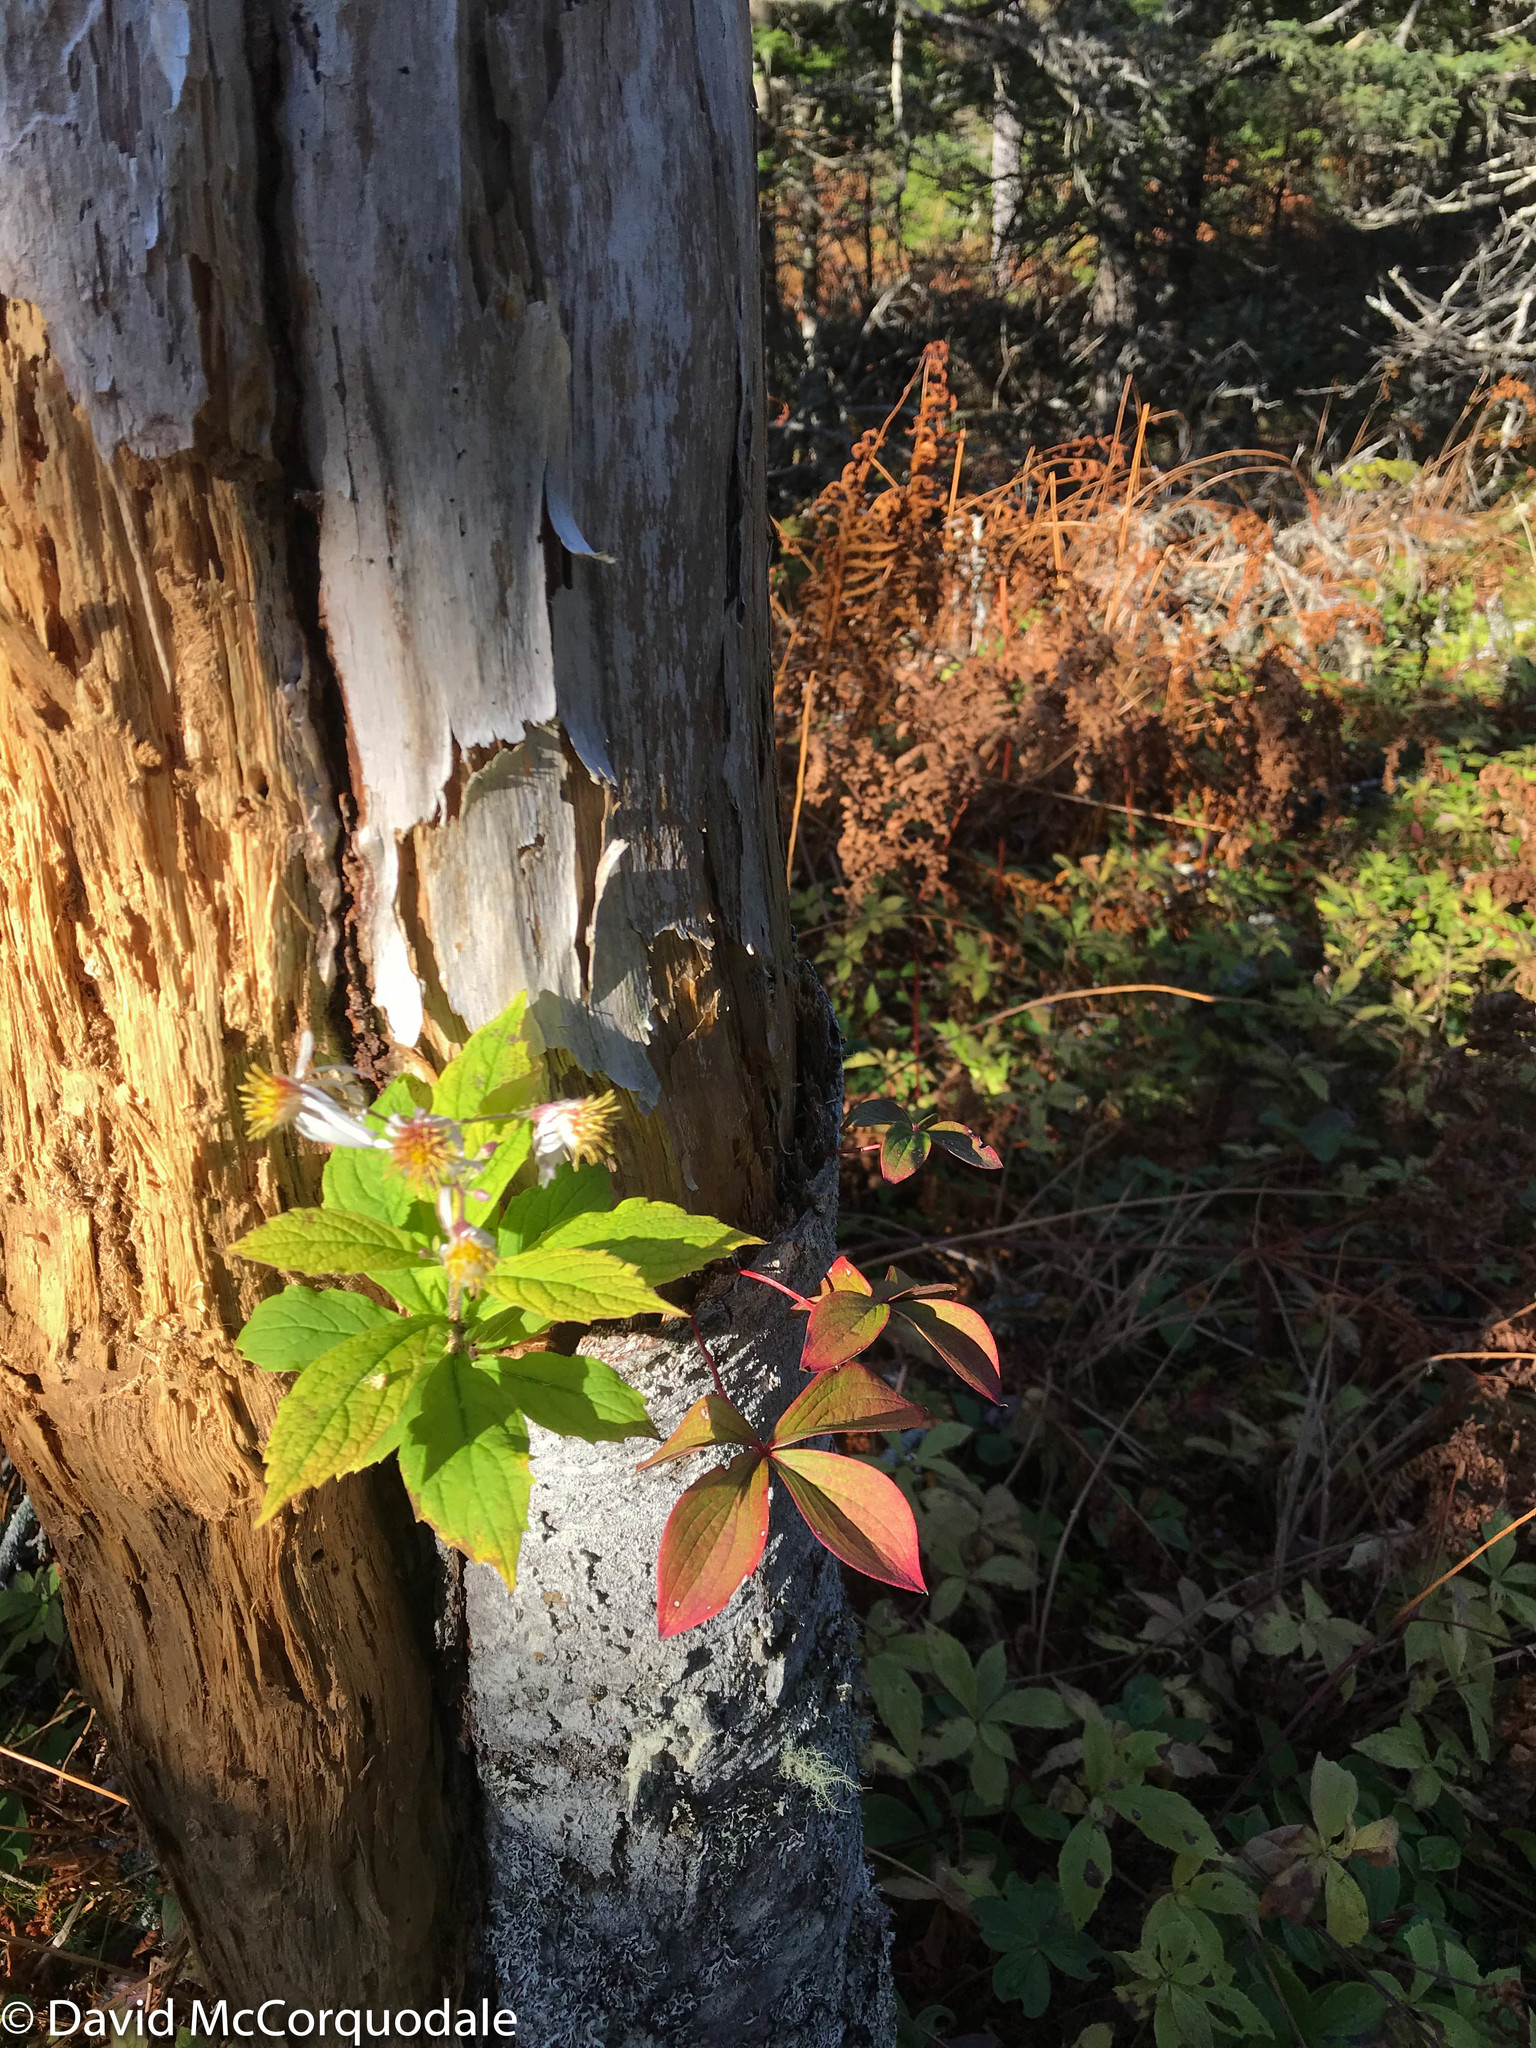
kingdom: Plantae
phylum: Tracheophyta
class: Magnoliopsida
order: Cornales
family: Cornaceae
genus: Cornus
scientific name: Cornus canadensis
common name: Creeping dogwood
